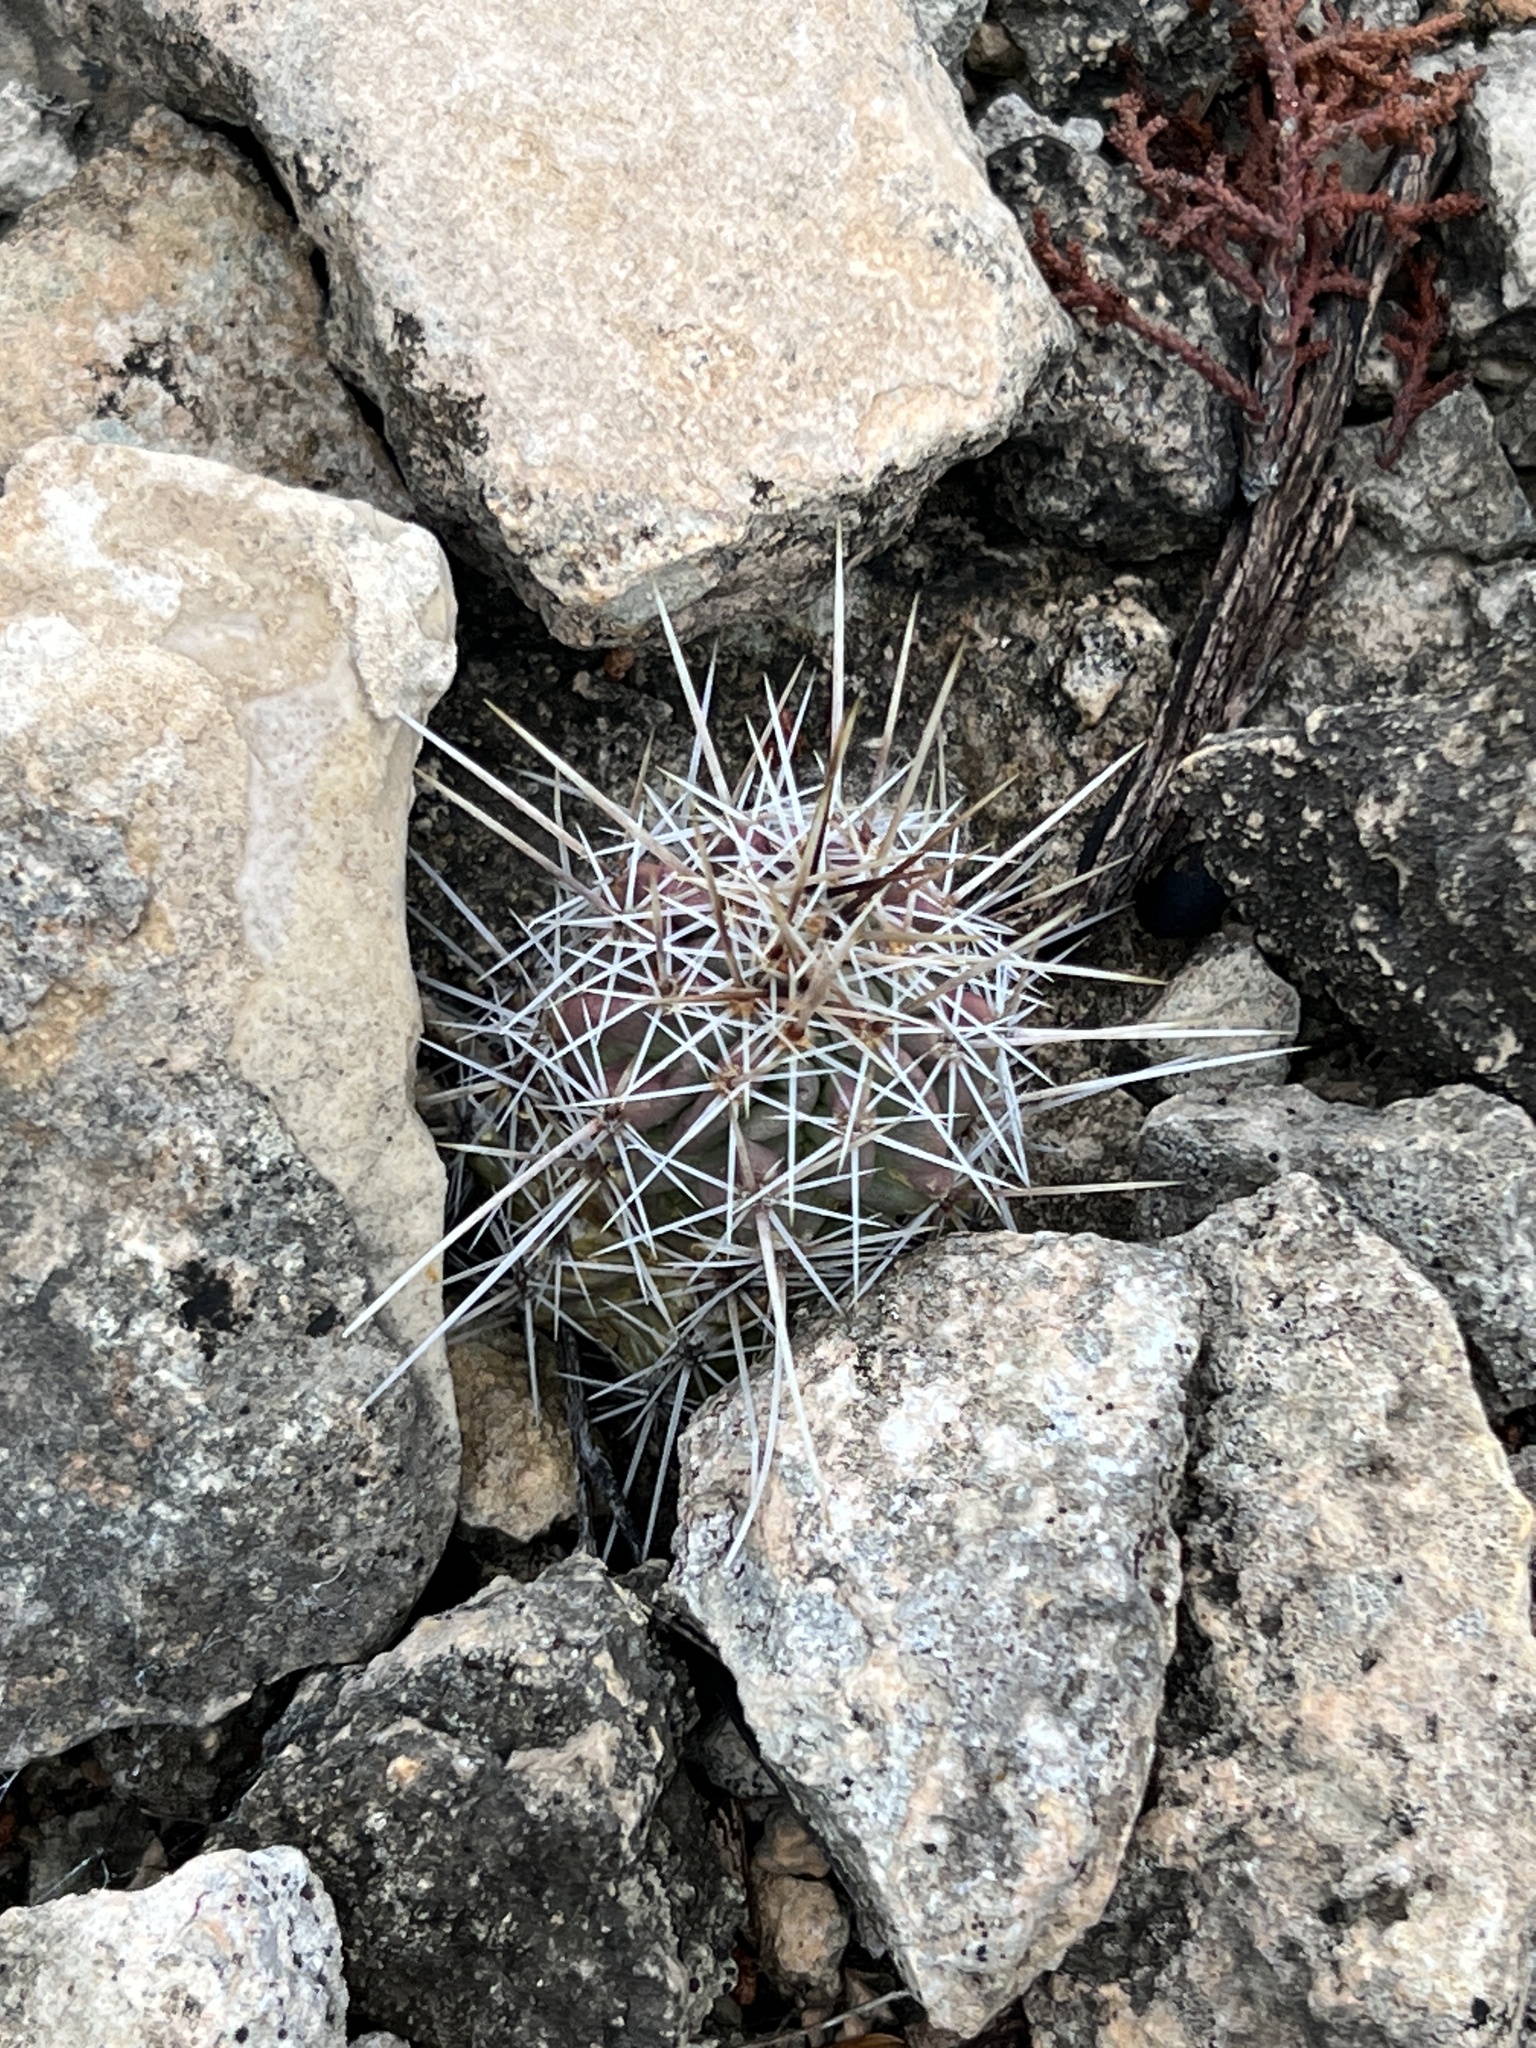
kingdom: Plantae
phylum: Tracheophyta
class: Magnoliopsida
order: Caryophyllales
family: Cactaceae
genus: Echinocereus
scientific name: Echinocereus enneacanthus
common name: Pitaya
